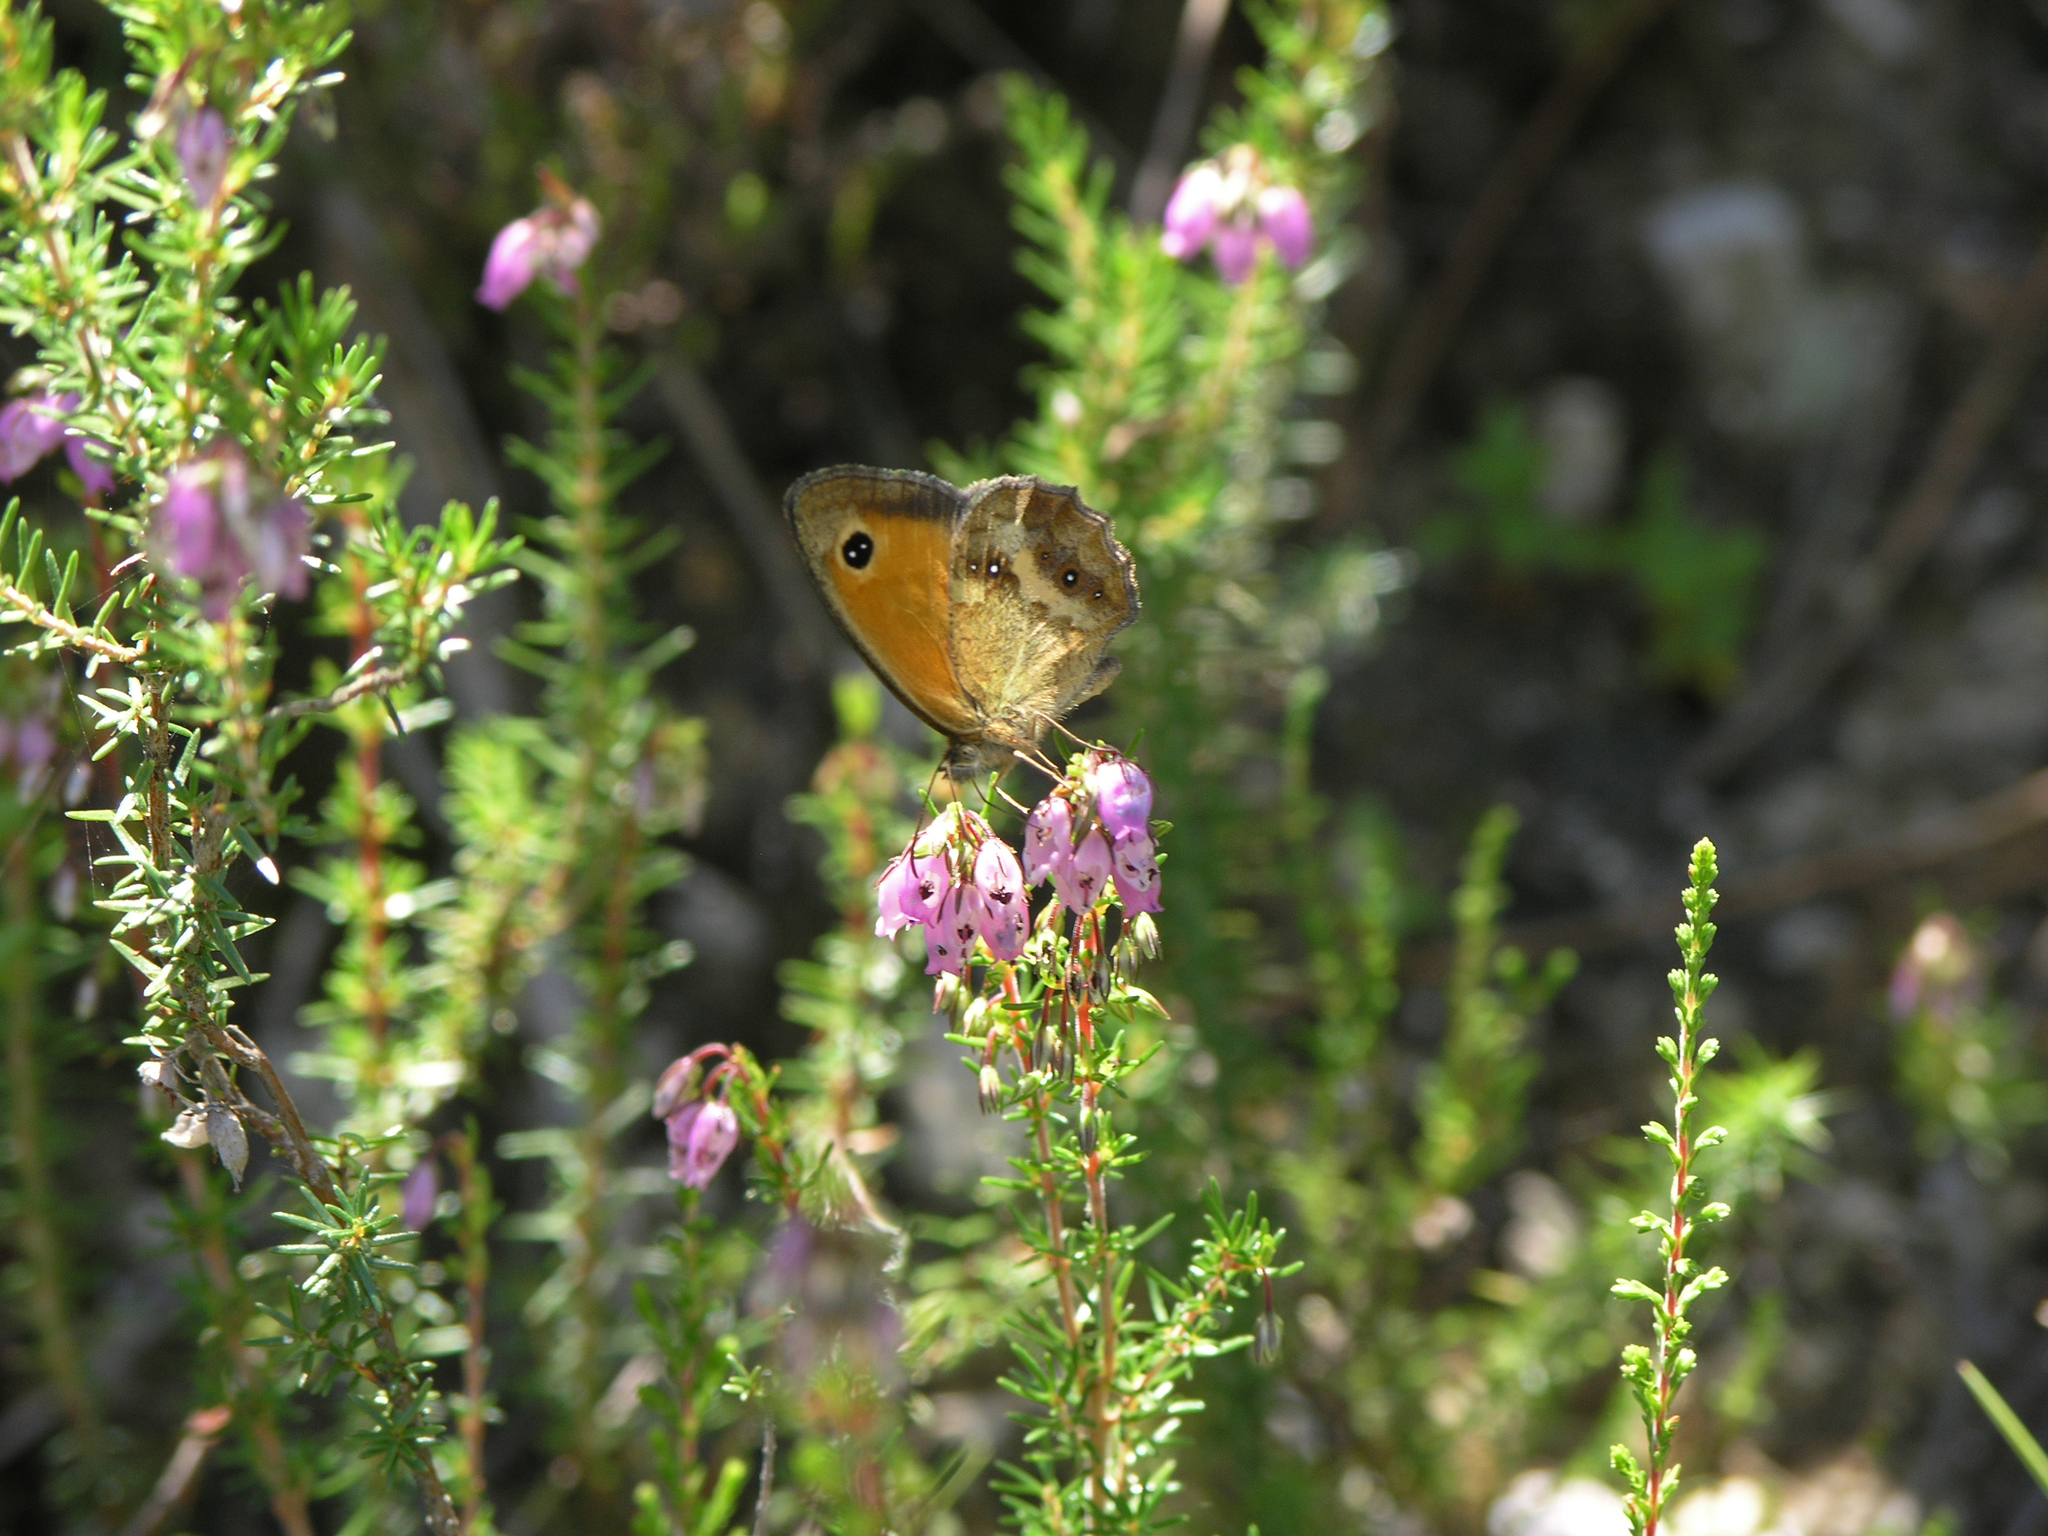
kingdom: Plantae
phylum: Tracheophyta
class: Magnoliopsida
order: Ericales
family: Ericaceae
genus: Erica
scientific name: Erica cinerea
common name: Bell heather
